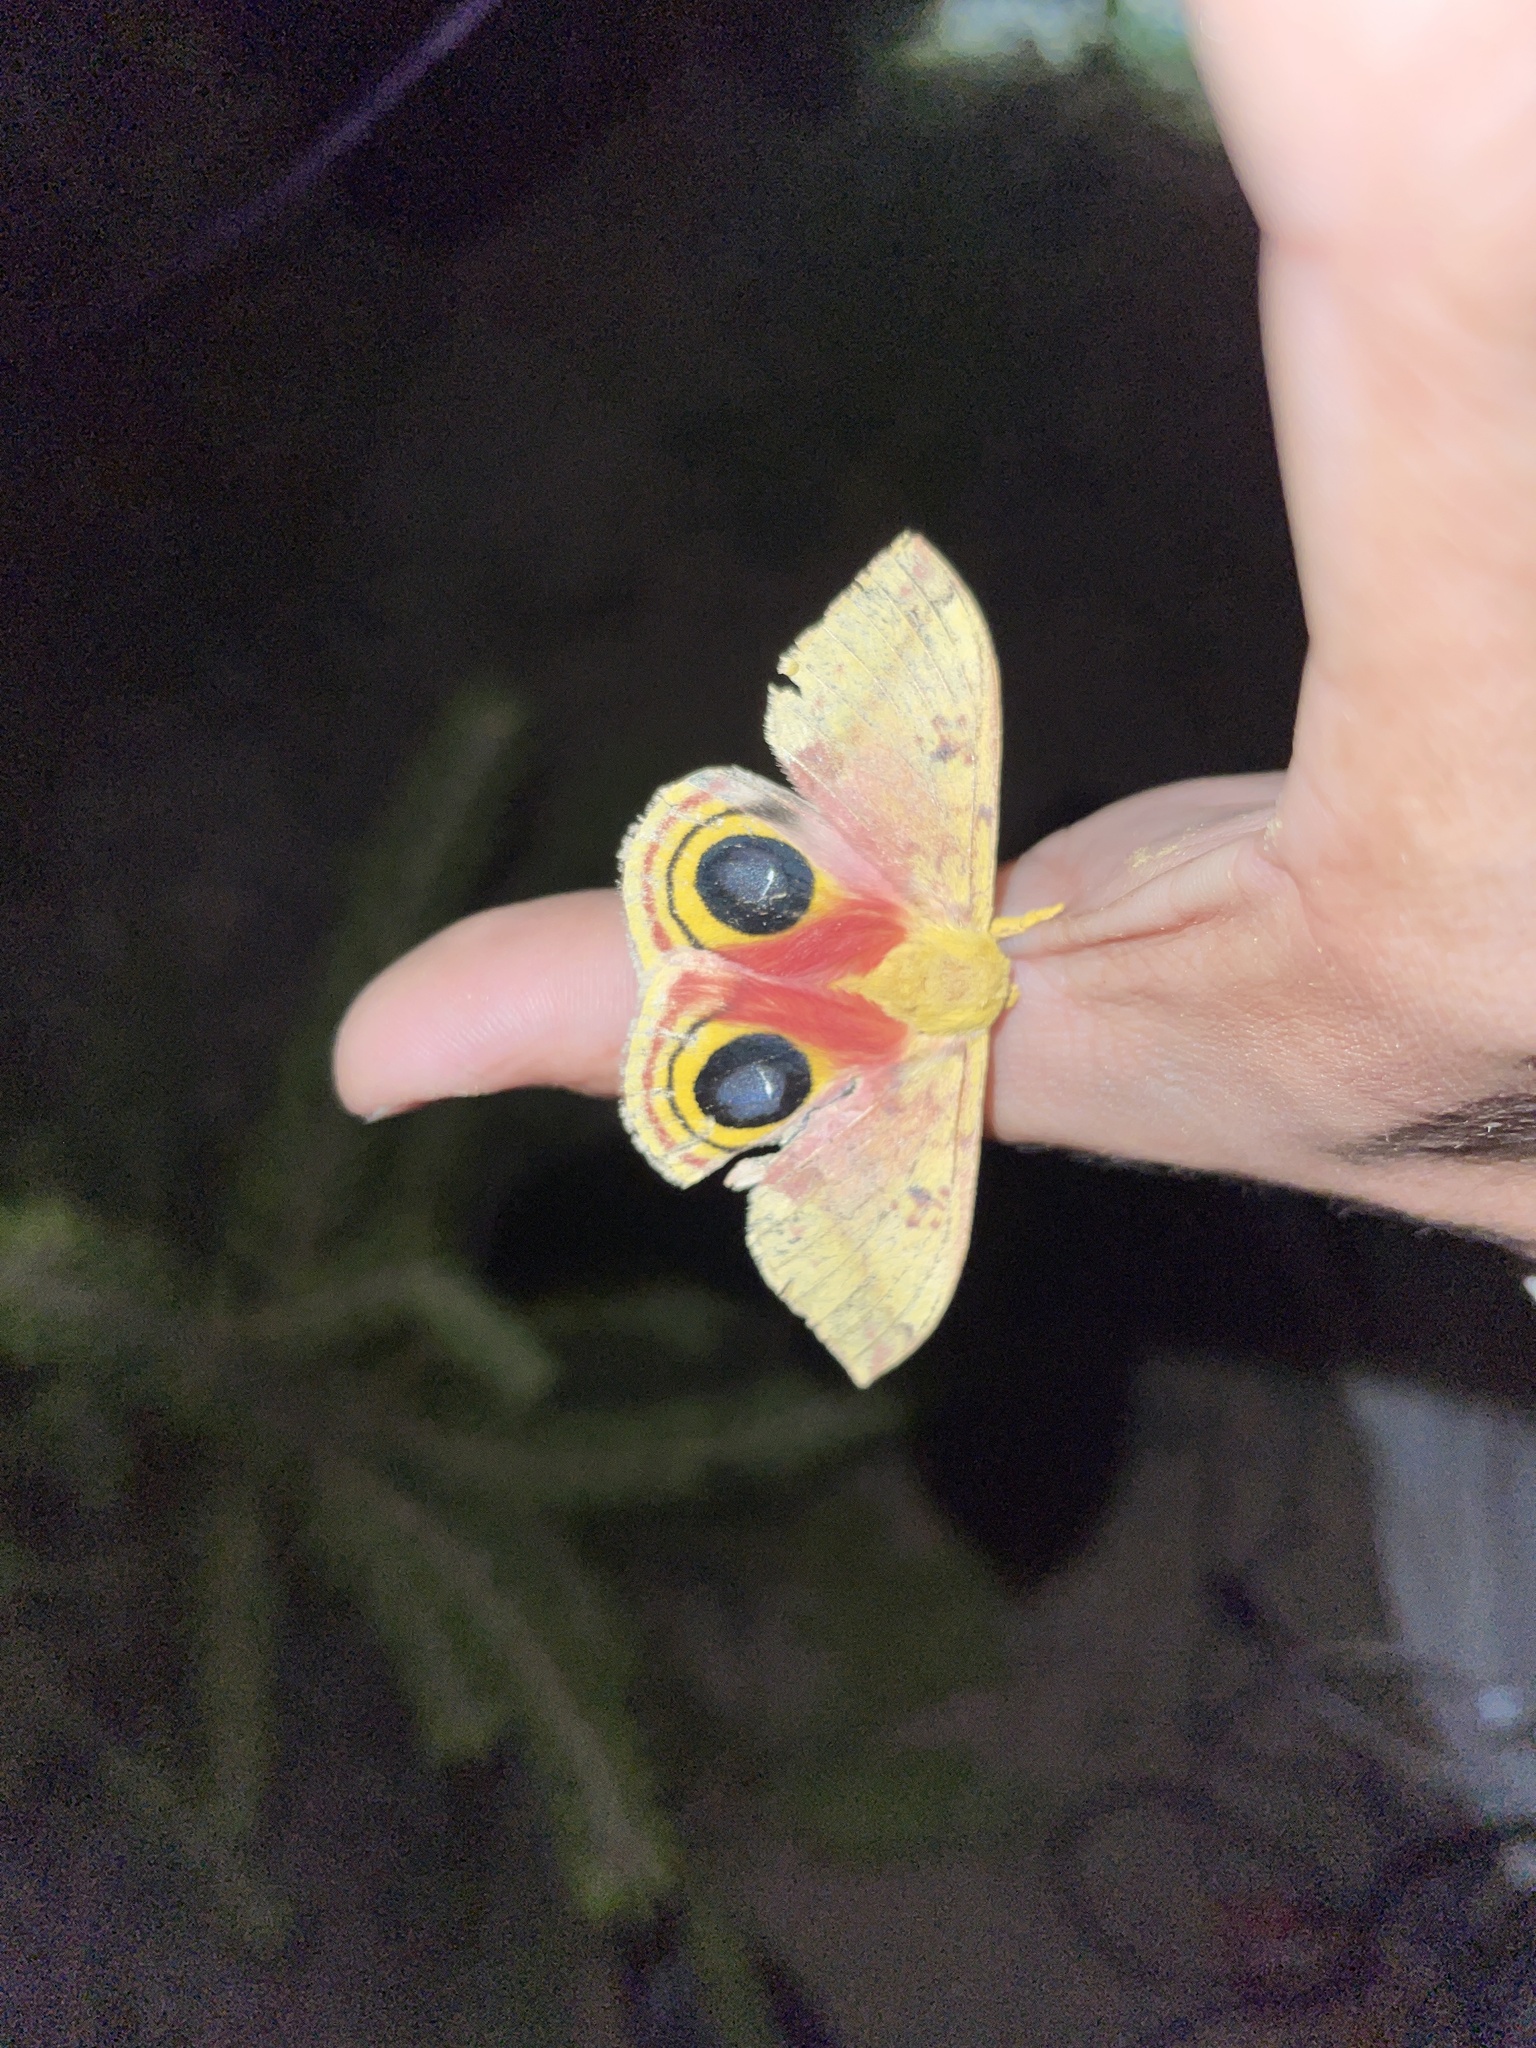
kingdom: Animalia
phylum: Arthropoda
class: Insecta
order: Lepidoptera
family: Saturniidae
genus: Automeris
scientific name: Automeris io
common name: Io moth
